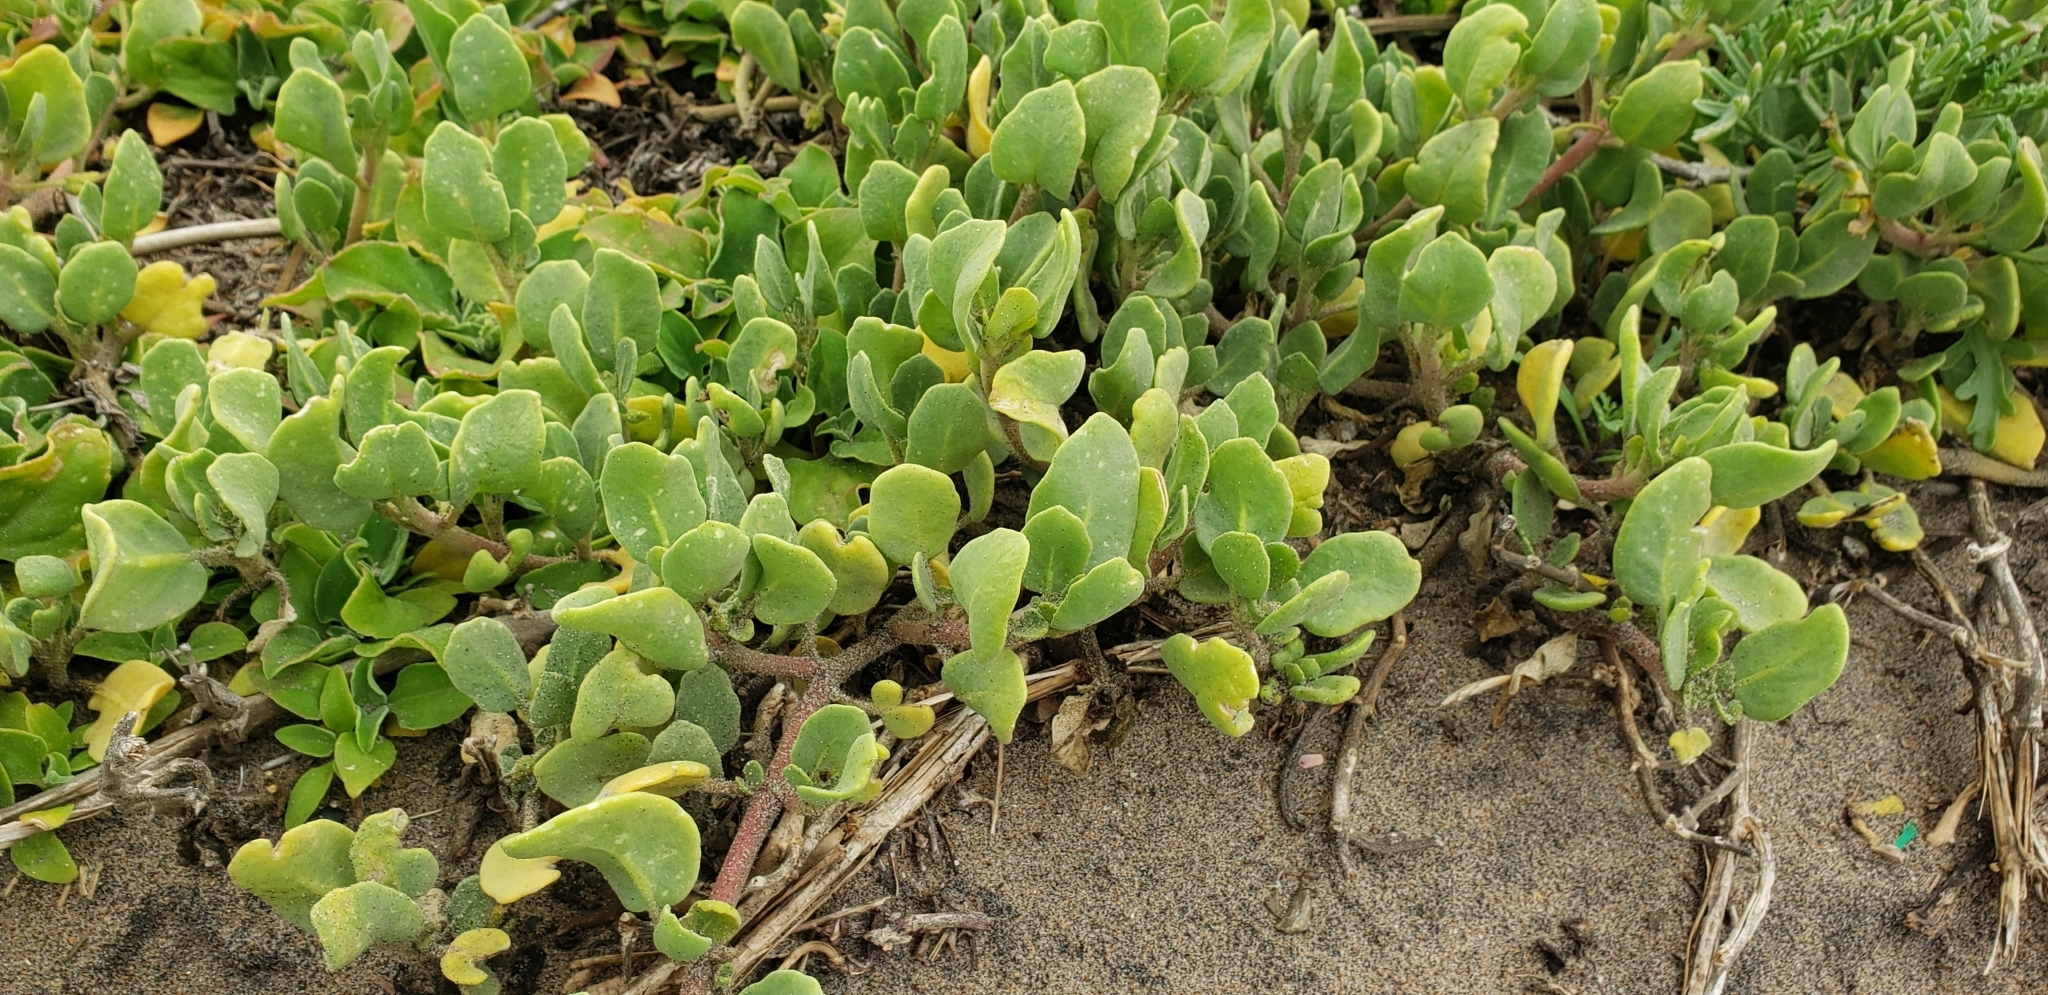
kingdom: Plantae
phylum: Tracheophyta
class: Magnoliopsida
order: Caryophyllales
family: Nyctaginaceae
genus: Abronia
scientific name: Abronia maritima
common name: Red sand-verbena
